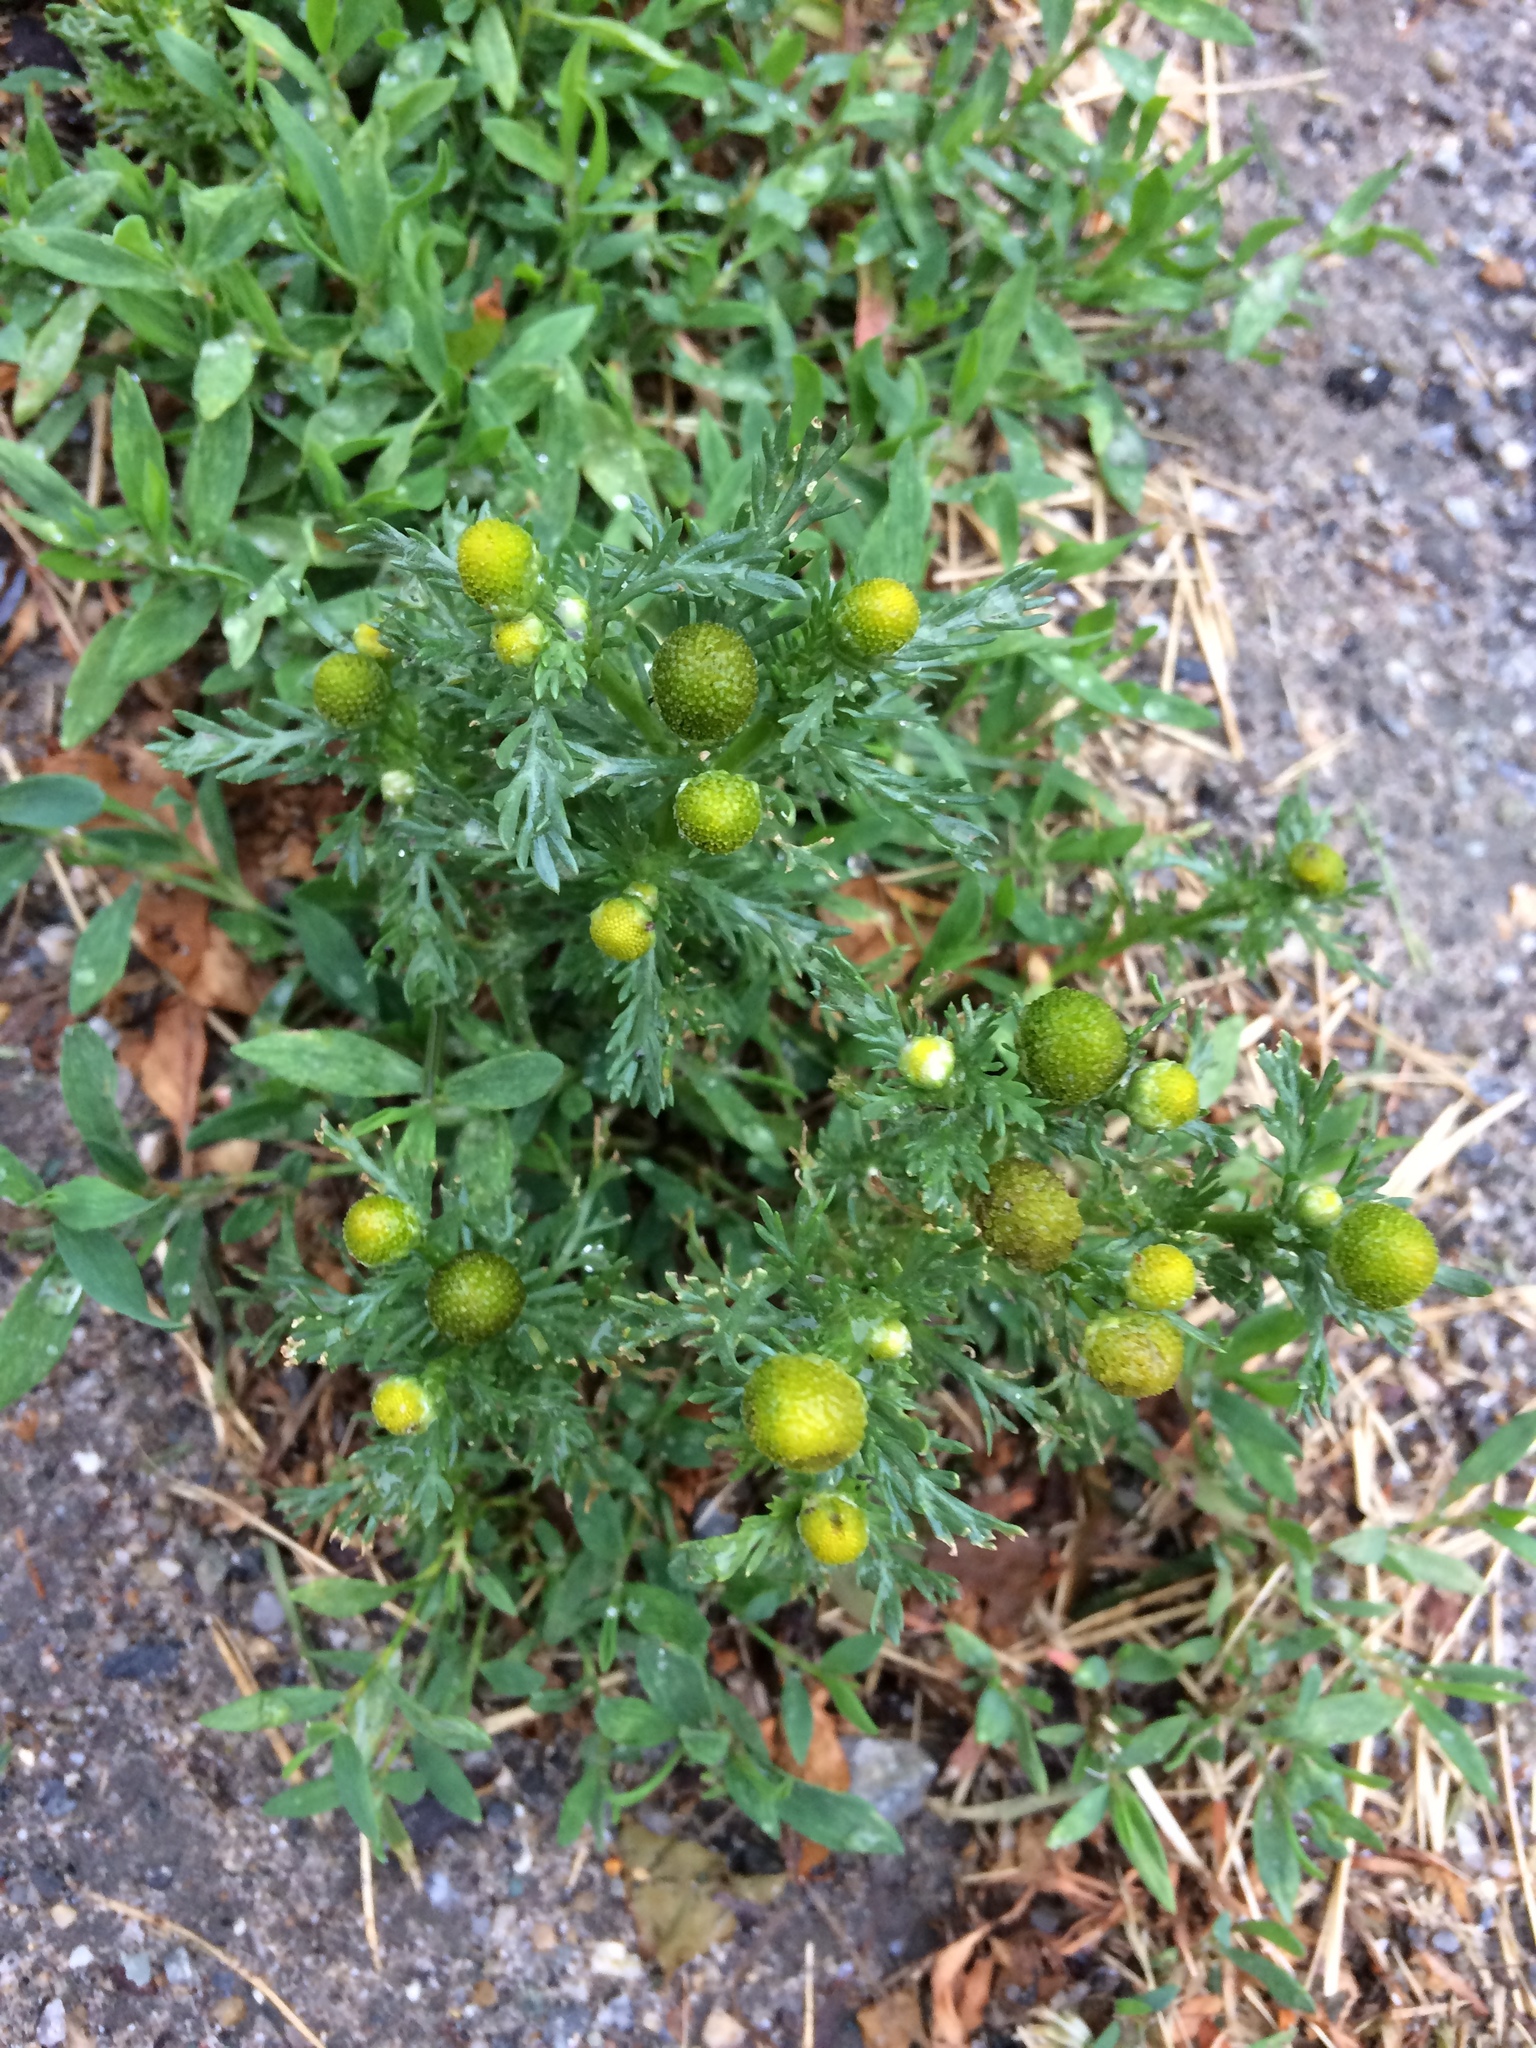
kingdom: Plantae
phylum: Tracheophyta
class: Magnoliopsida
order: Asterales
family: Asteraceae
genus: Matricaria
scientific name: Matricaria discoidea
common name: Disc mayweed
